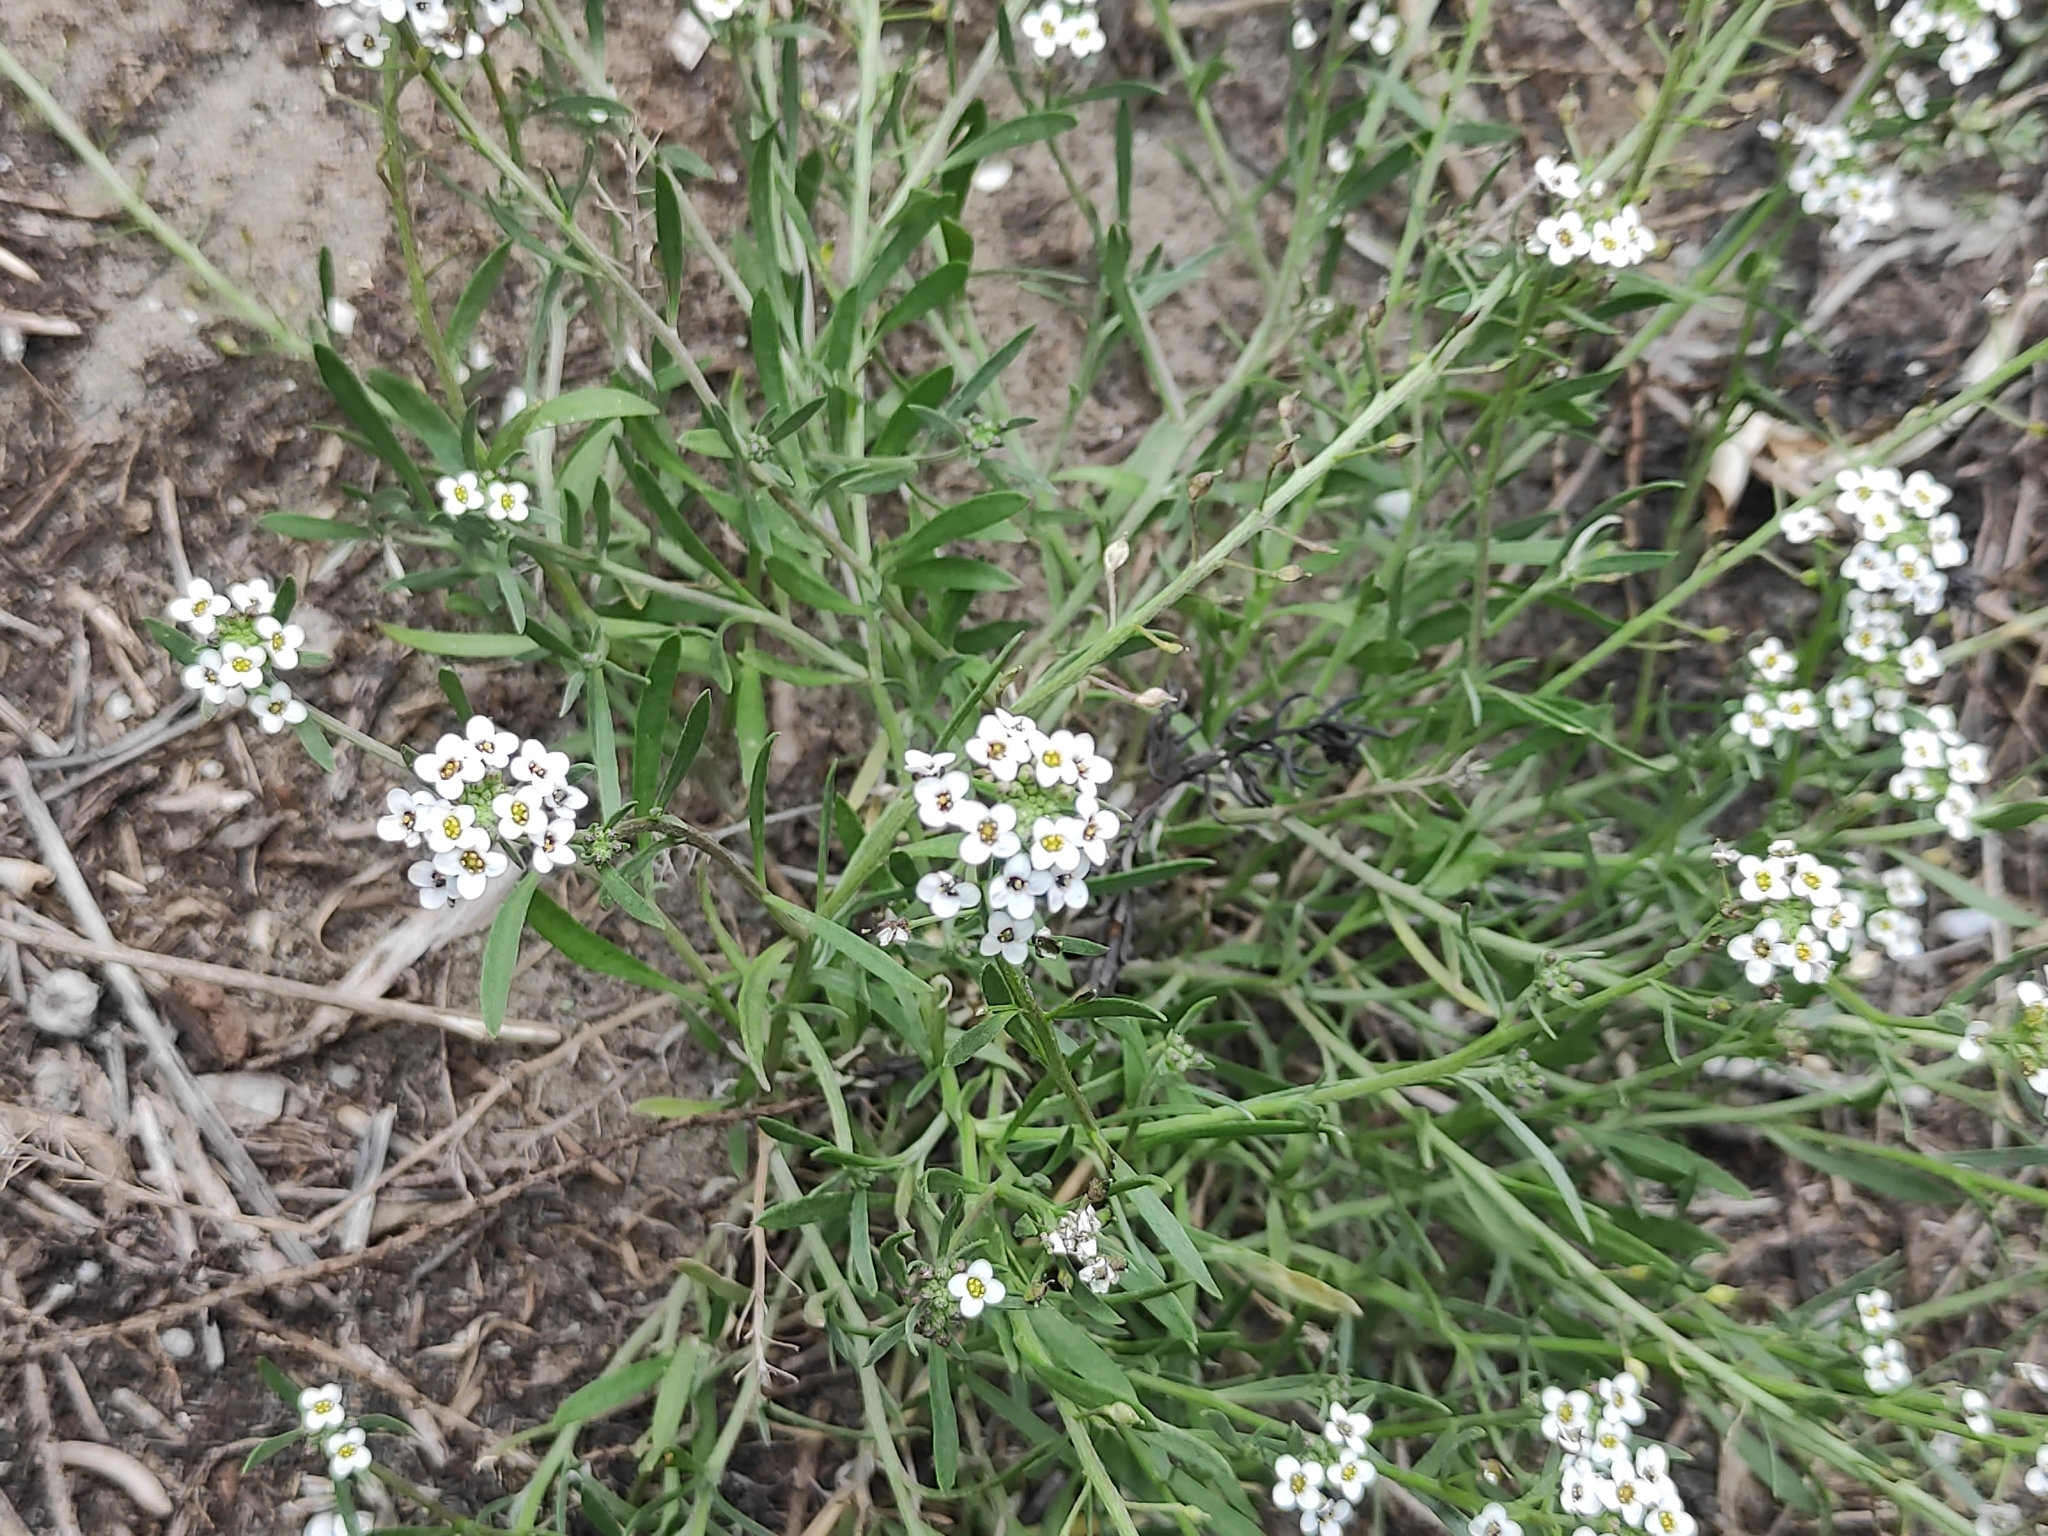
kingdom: Plantae
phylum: Tracheophyta
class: Magnoliopsida
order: Brassicales
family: Brassicaceae
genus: Lobularia
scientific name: Lobularia maritima
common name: Sweet alison
